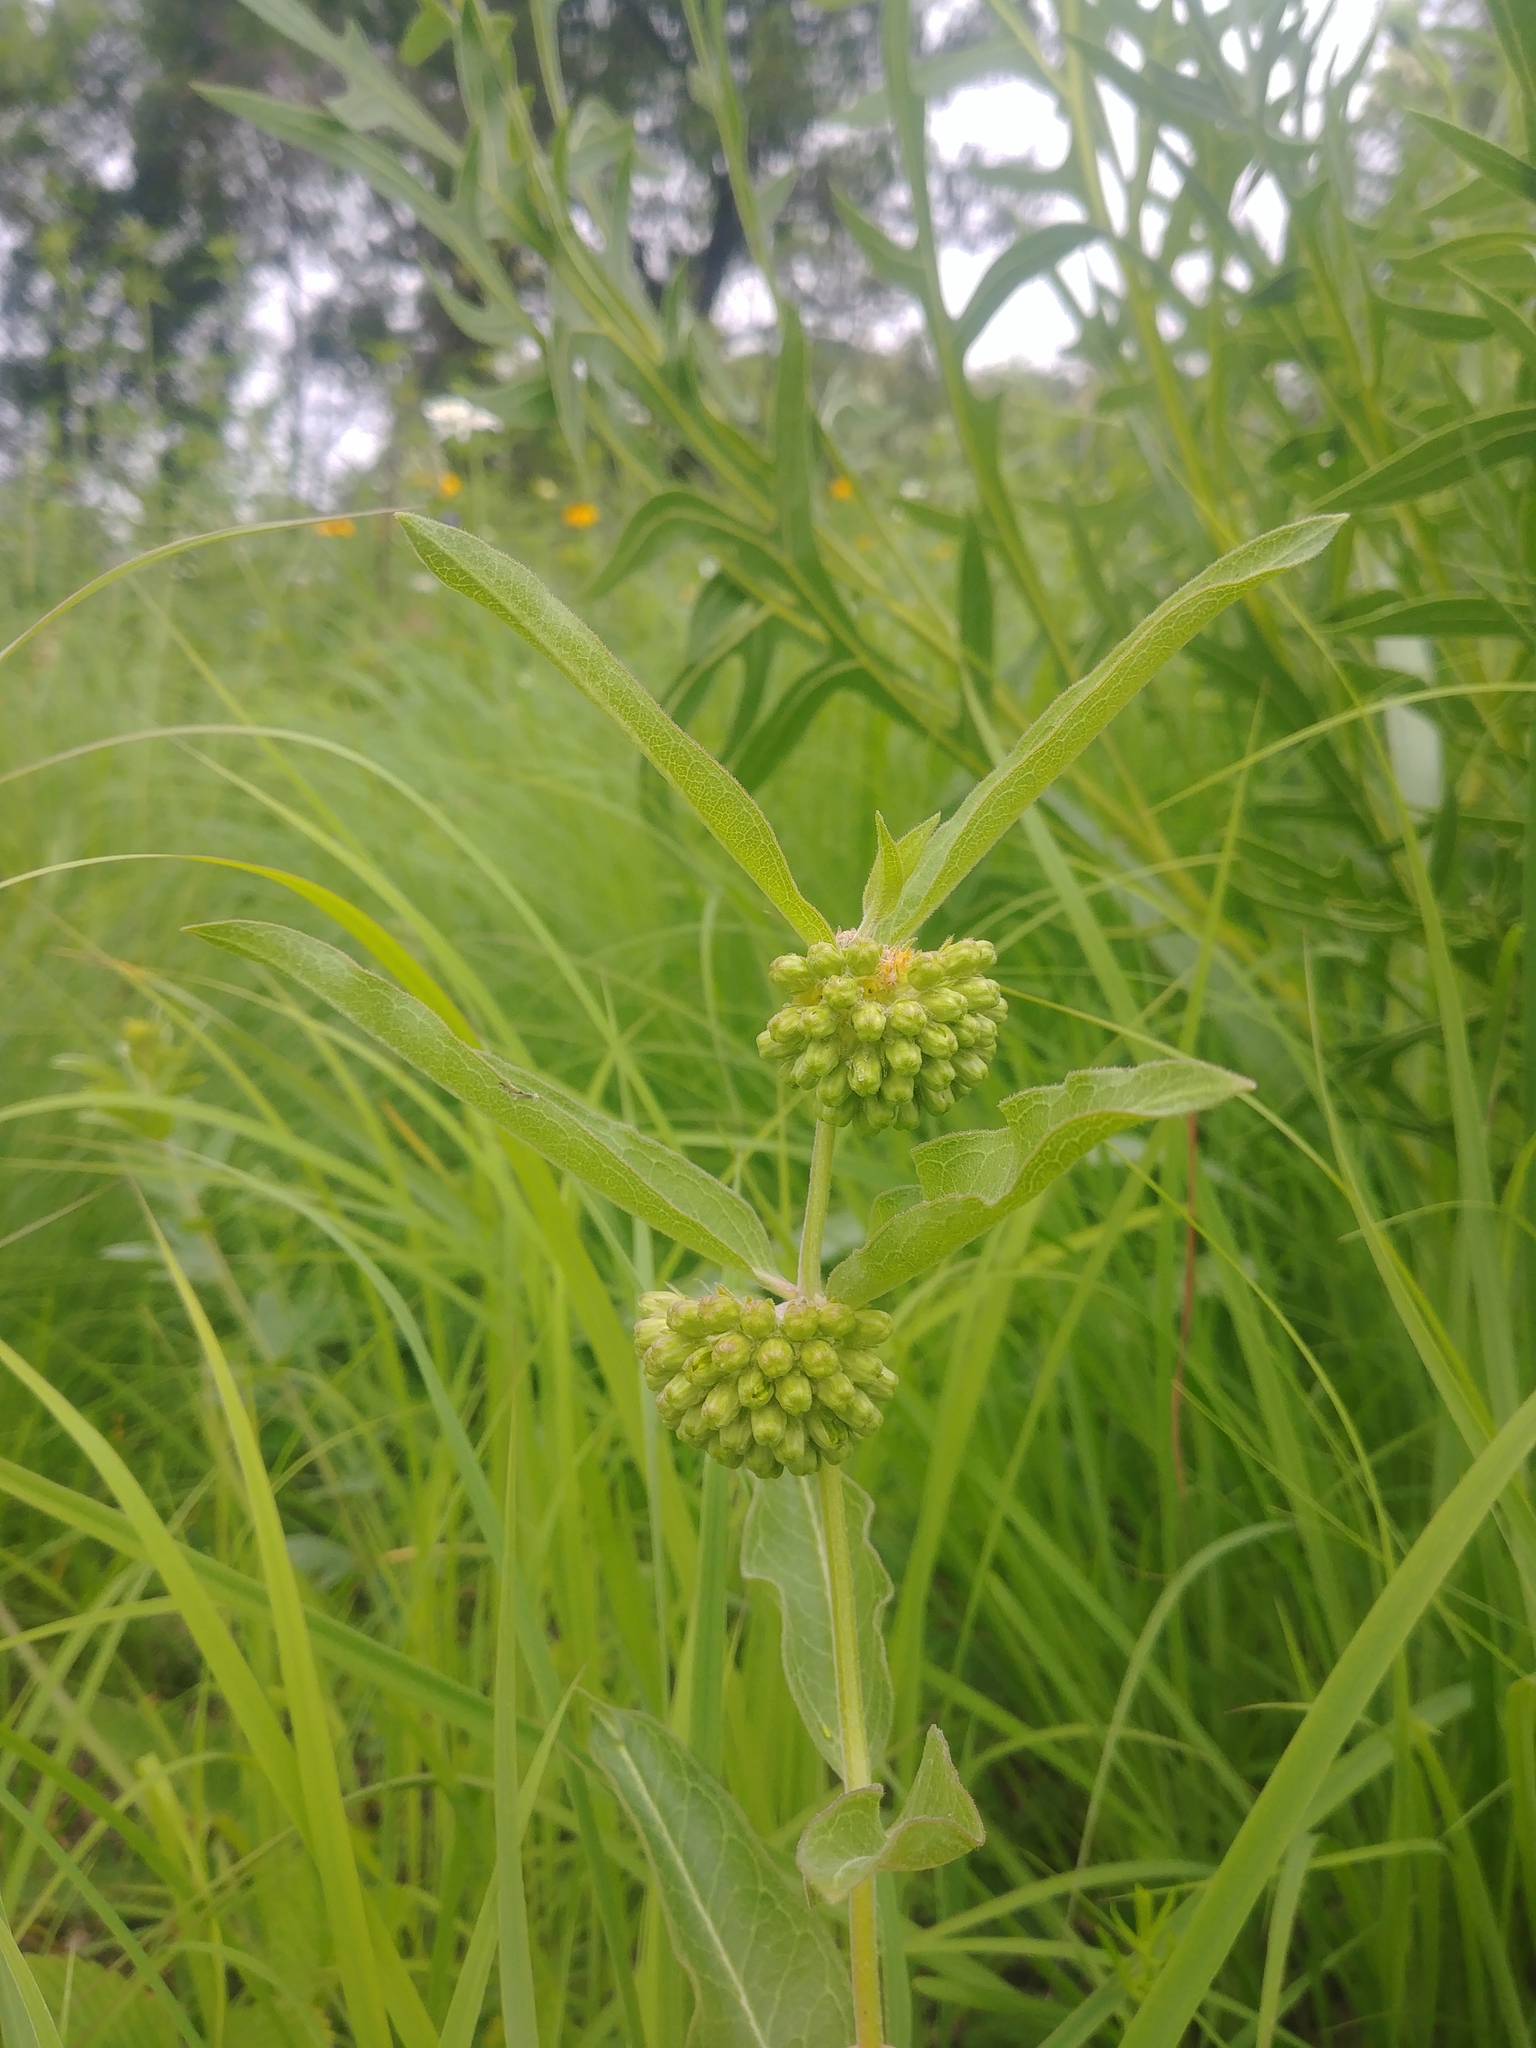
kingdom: Plantae
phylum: Tracheophyta
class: Magnoliopsida
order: Gentianales
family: Apocynaceae
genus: Asclepias
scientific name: Asclepias viridiflora
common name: Green comet milkweed
